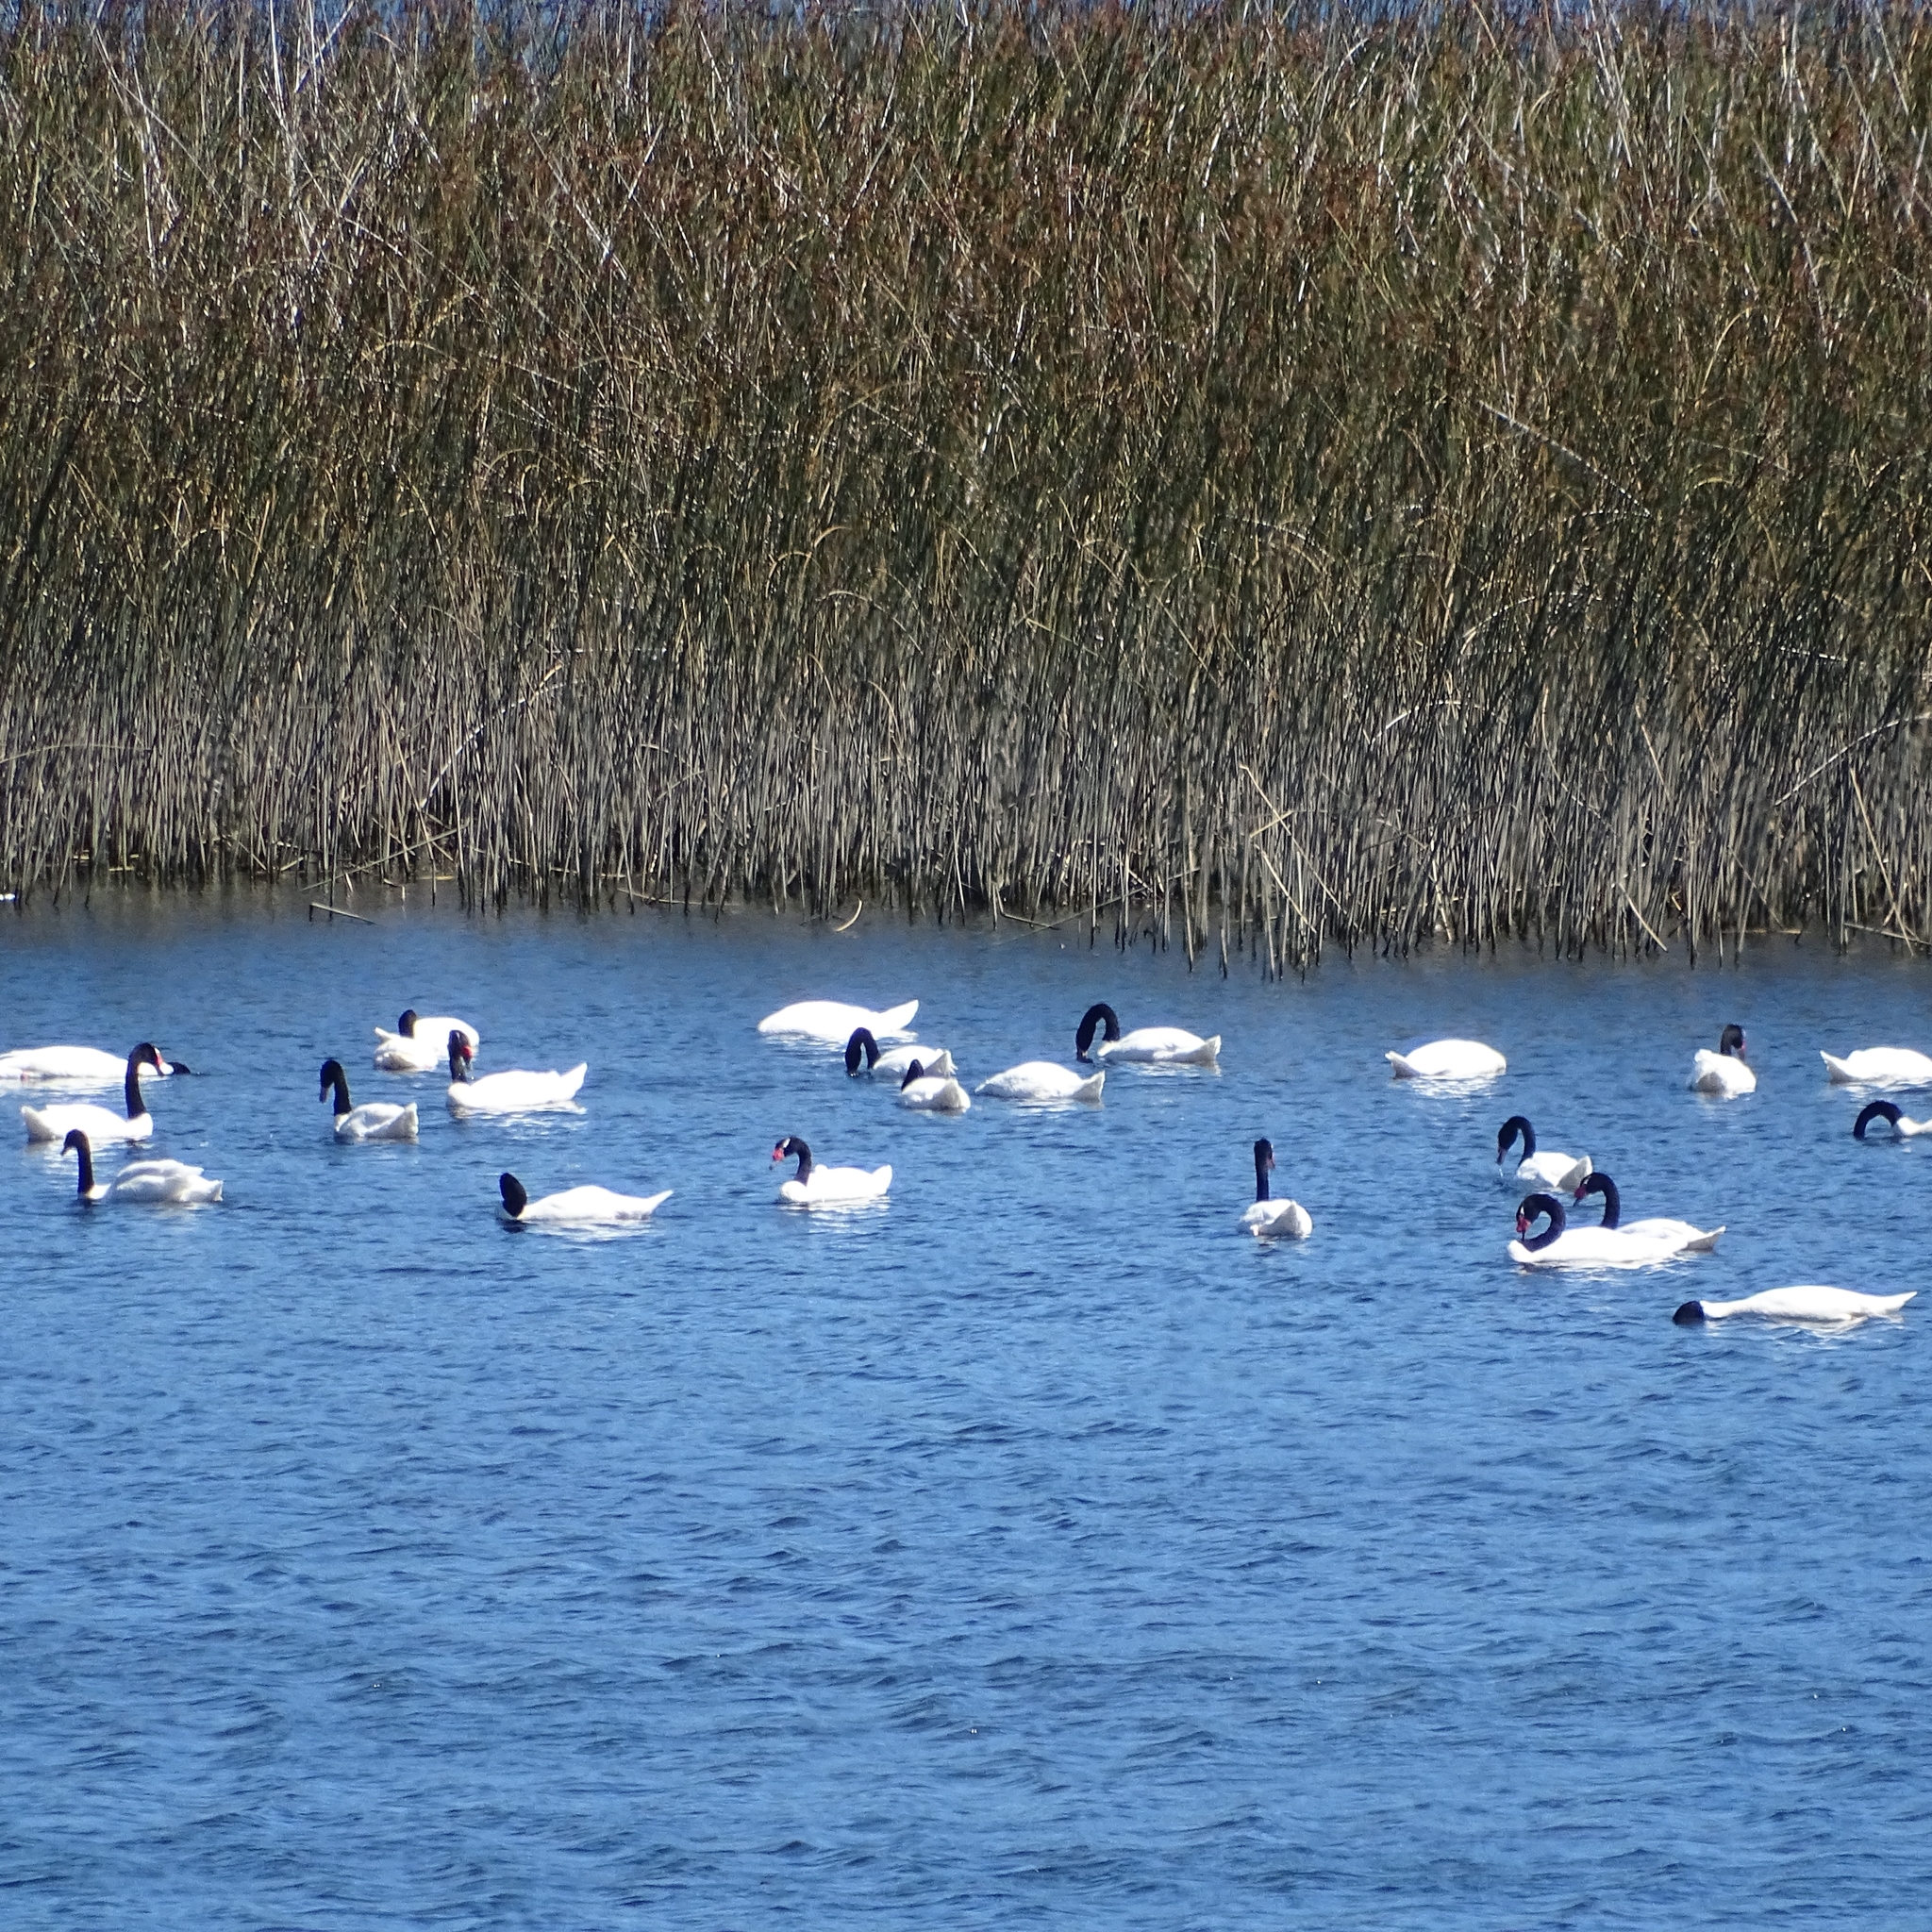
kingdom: Animalia
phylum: Chordata
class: Aves
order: Anseriformes
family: Anatidae
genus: Cygnus
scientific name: Cygnus melancoryphus
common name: Black-necked swan
